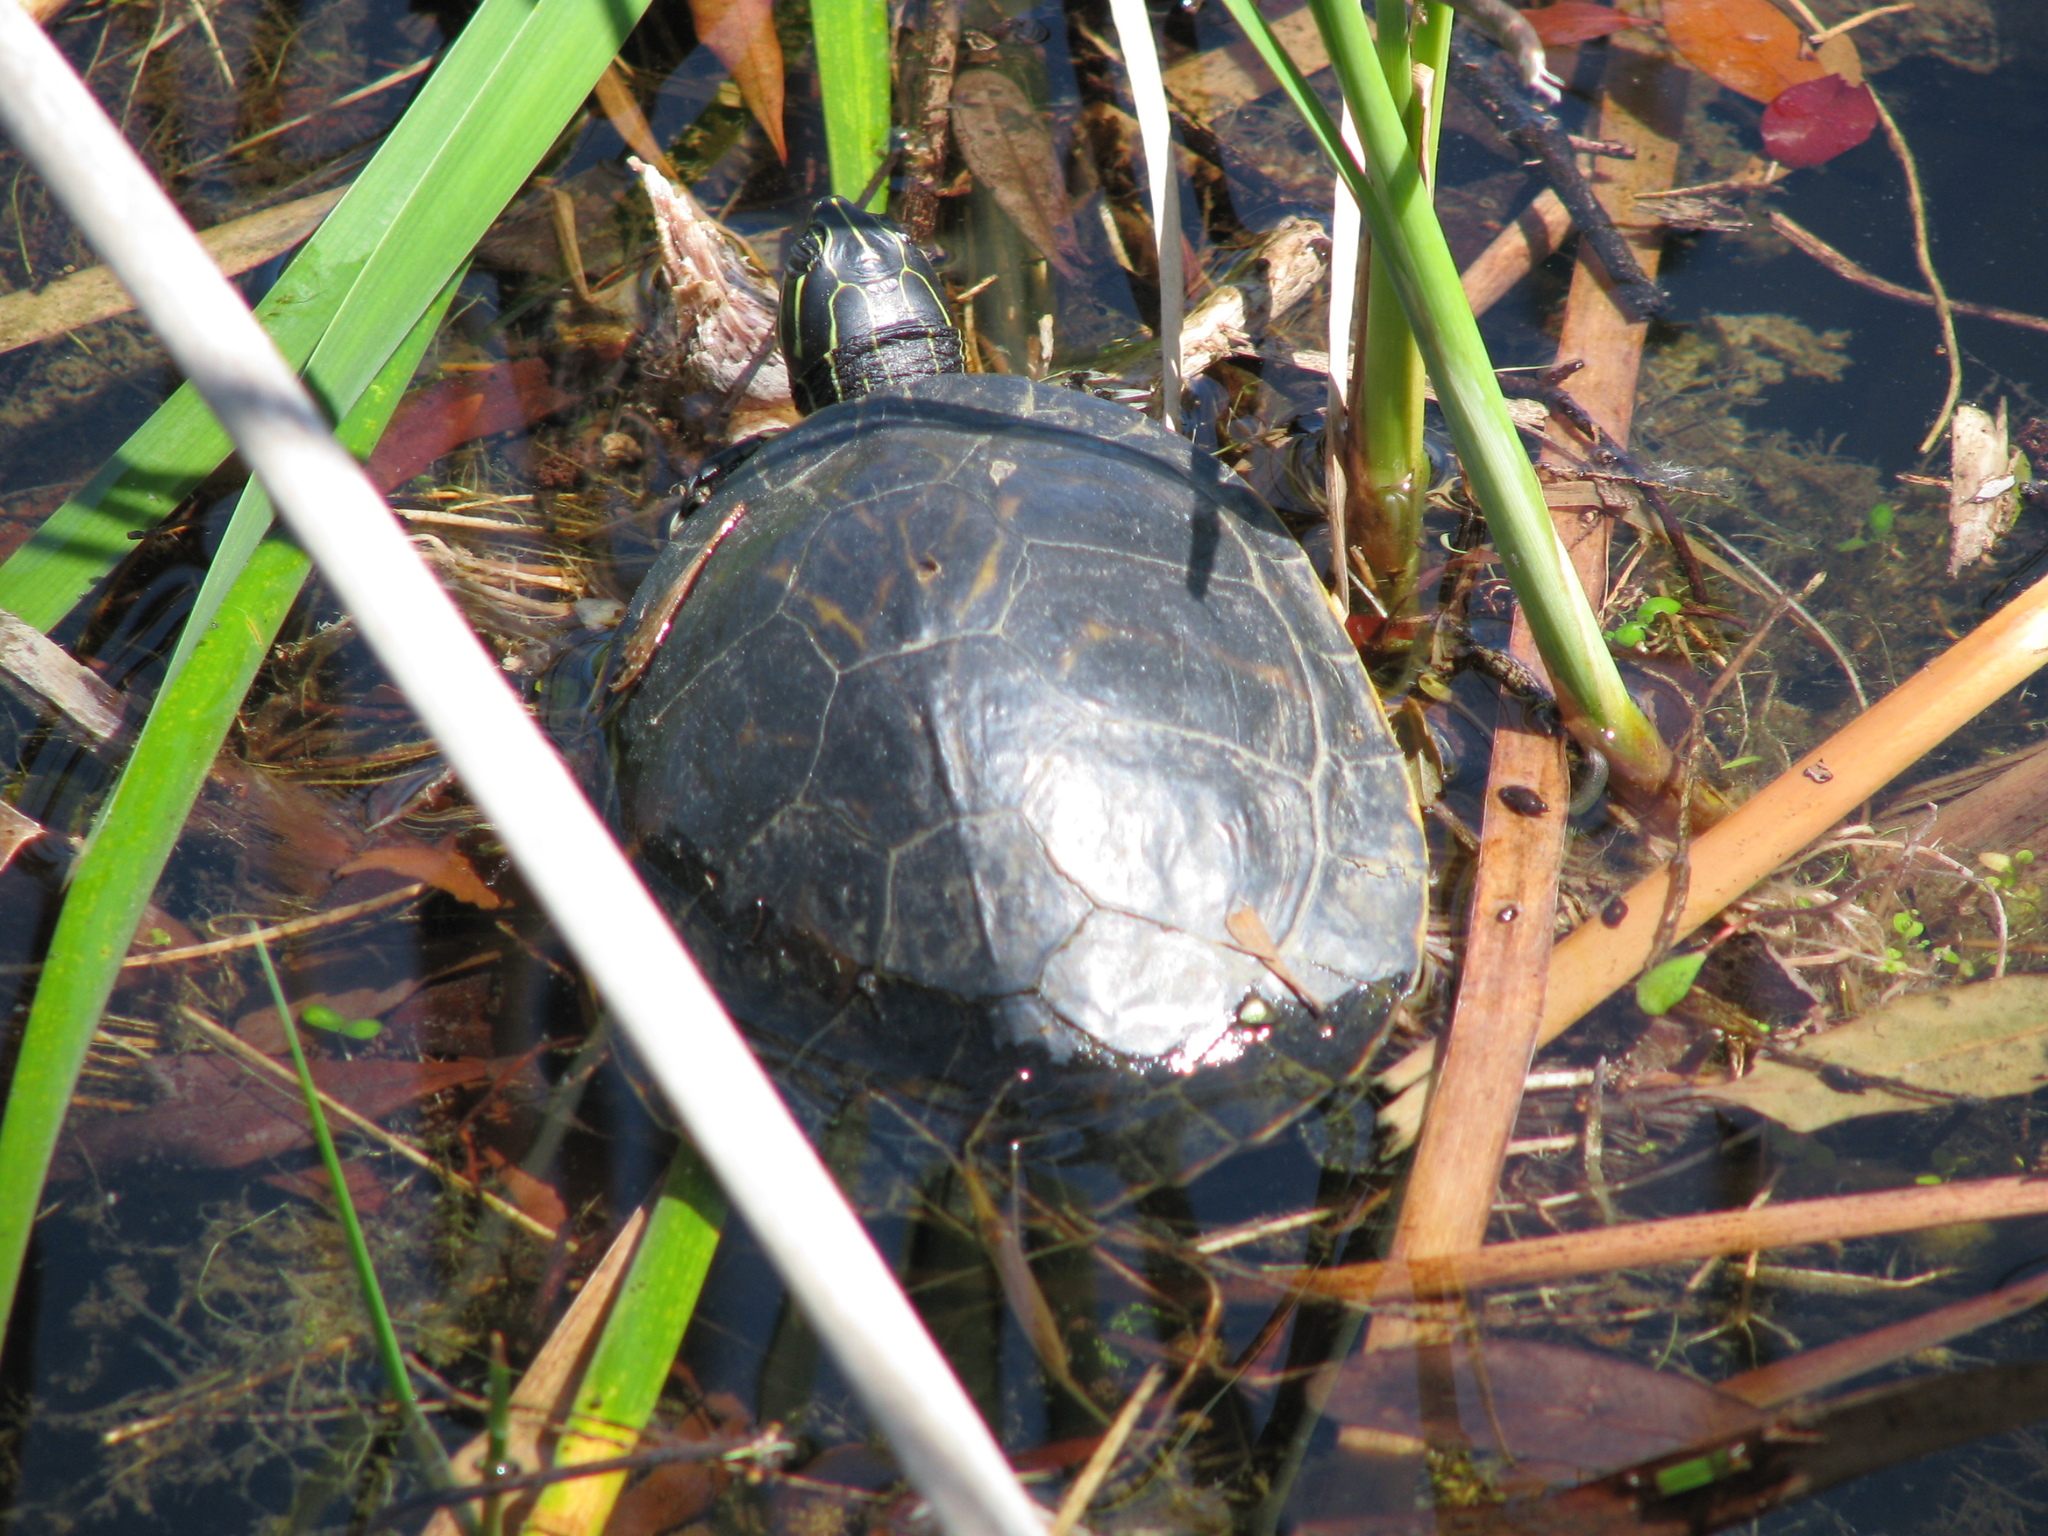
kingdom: Animalia
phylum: Chordata
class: Testudines
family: Emydidae
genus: Pseudemys
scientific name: Pseudemys nelsoni
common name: Florida red-bellied turtle
